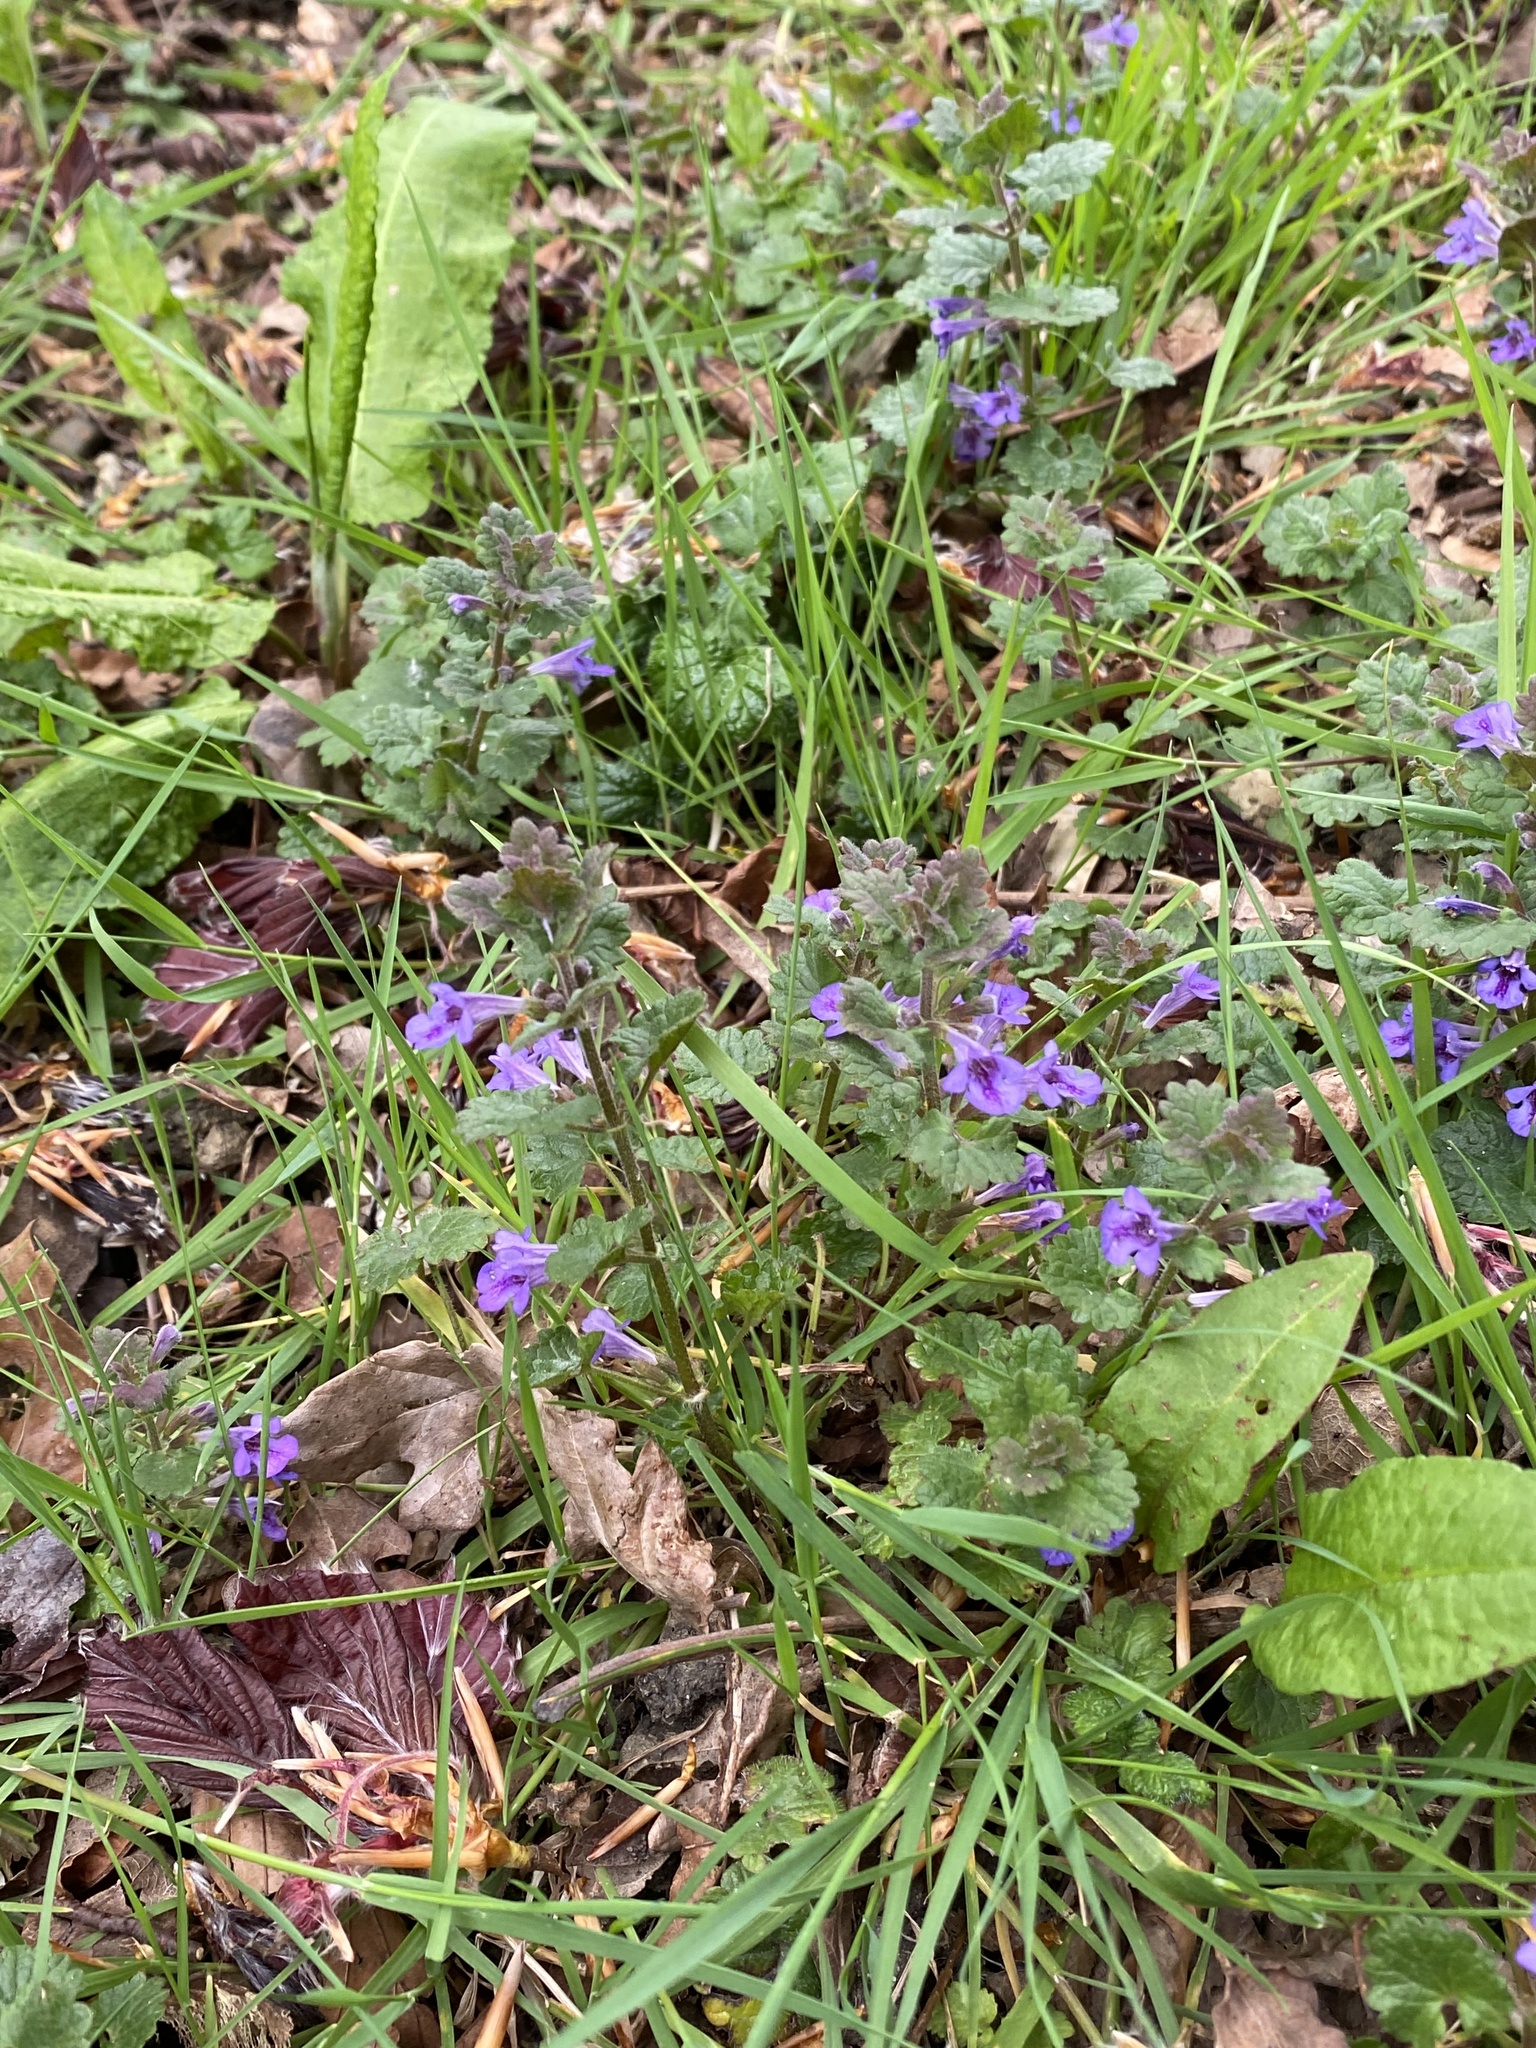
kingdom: Plantae
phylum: Tracheophyta
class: Magnoliopsida
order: Lamiales
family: Lamiaceae
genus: Glechoma
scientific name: Glechoma hederacea
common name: Ground ivy
